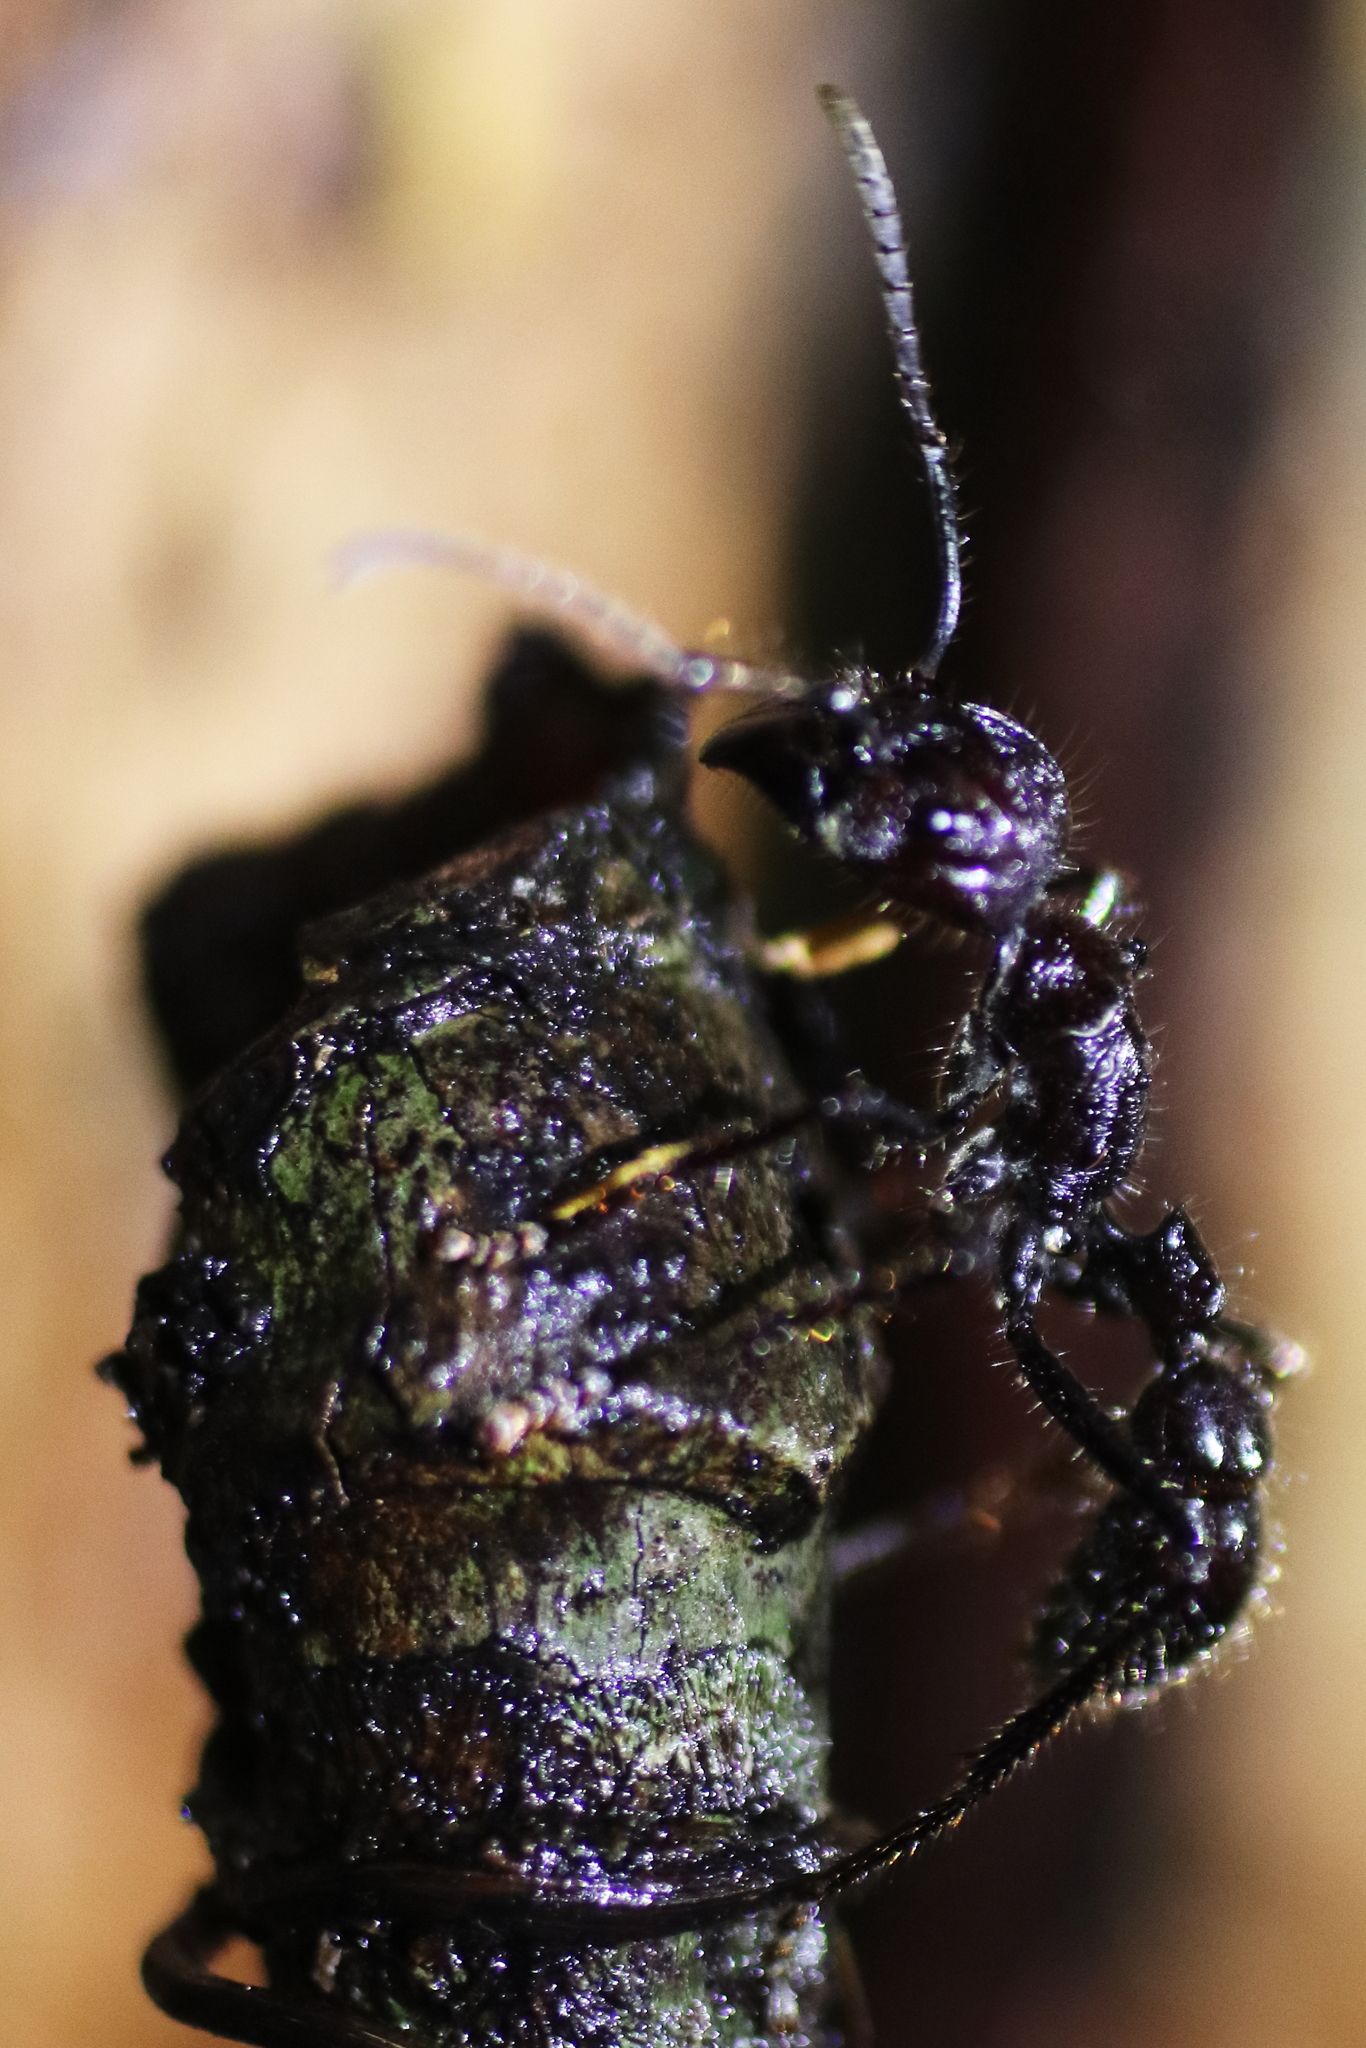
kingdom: Animalia
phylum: Arthropoda
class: Insecta
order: Hymenoptera
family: Formicidae
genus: Paraponera
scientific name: Paraponera clavata
